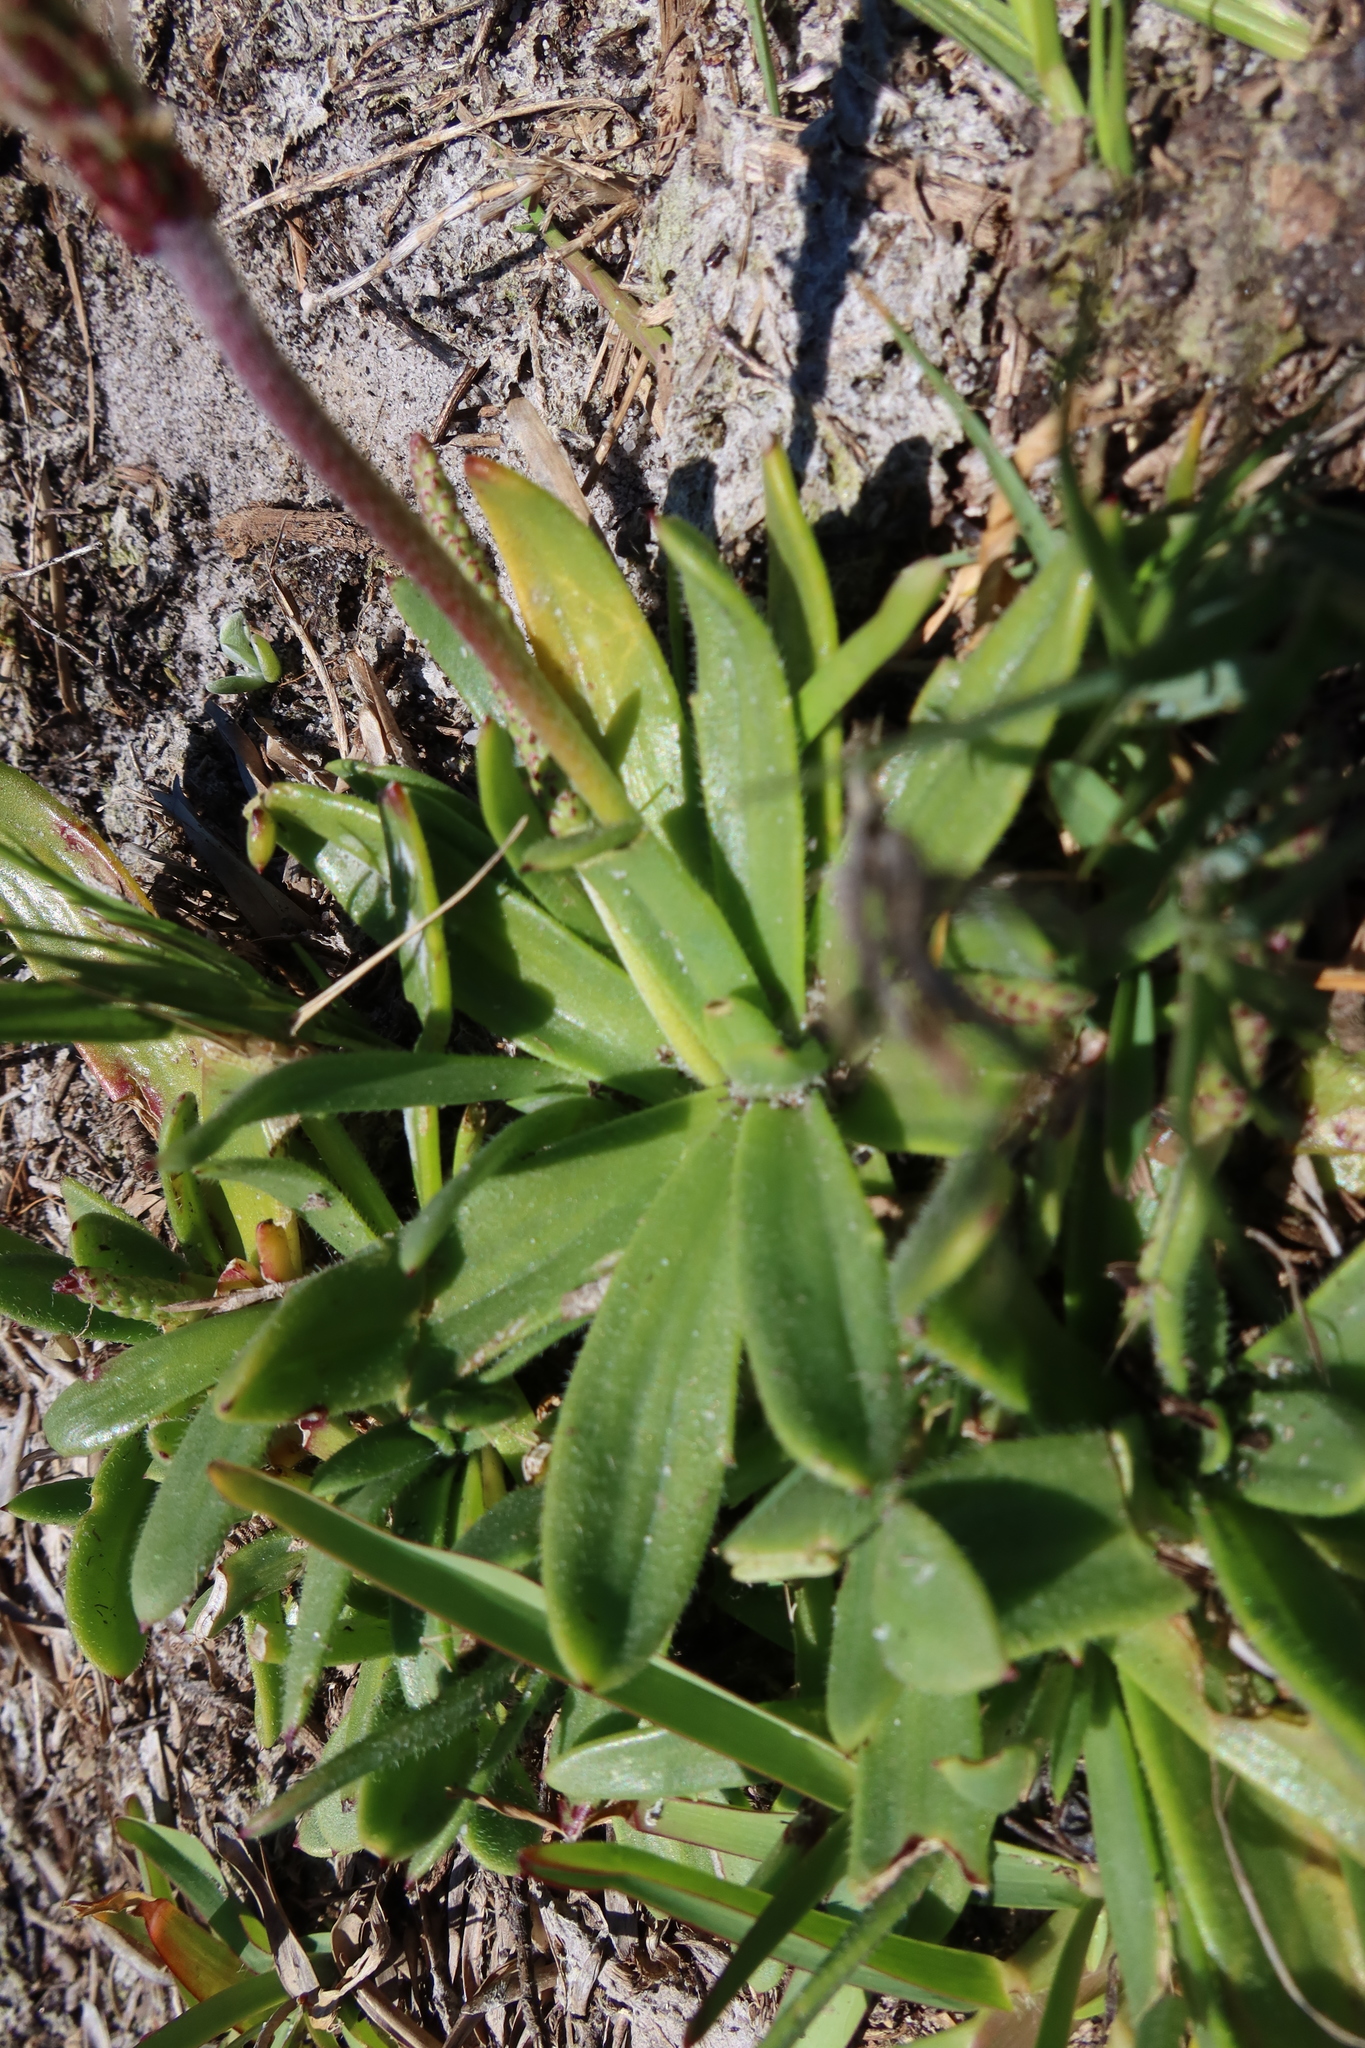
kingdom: Plantae
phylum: Tracheophyta
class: Magnoliopsida
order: Lamiales
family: Plantaginaceae
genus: Plantago
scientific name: Plantago carnosa
